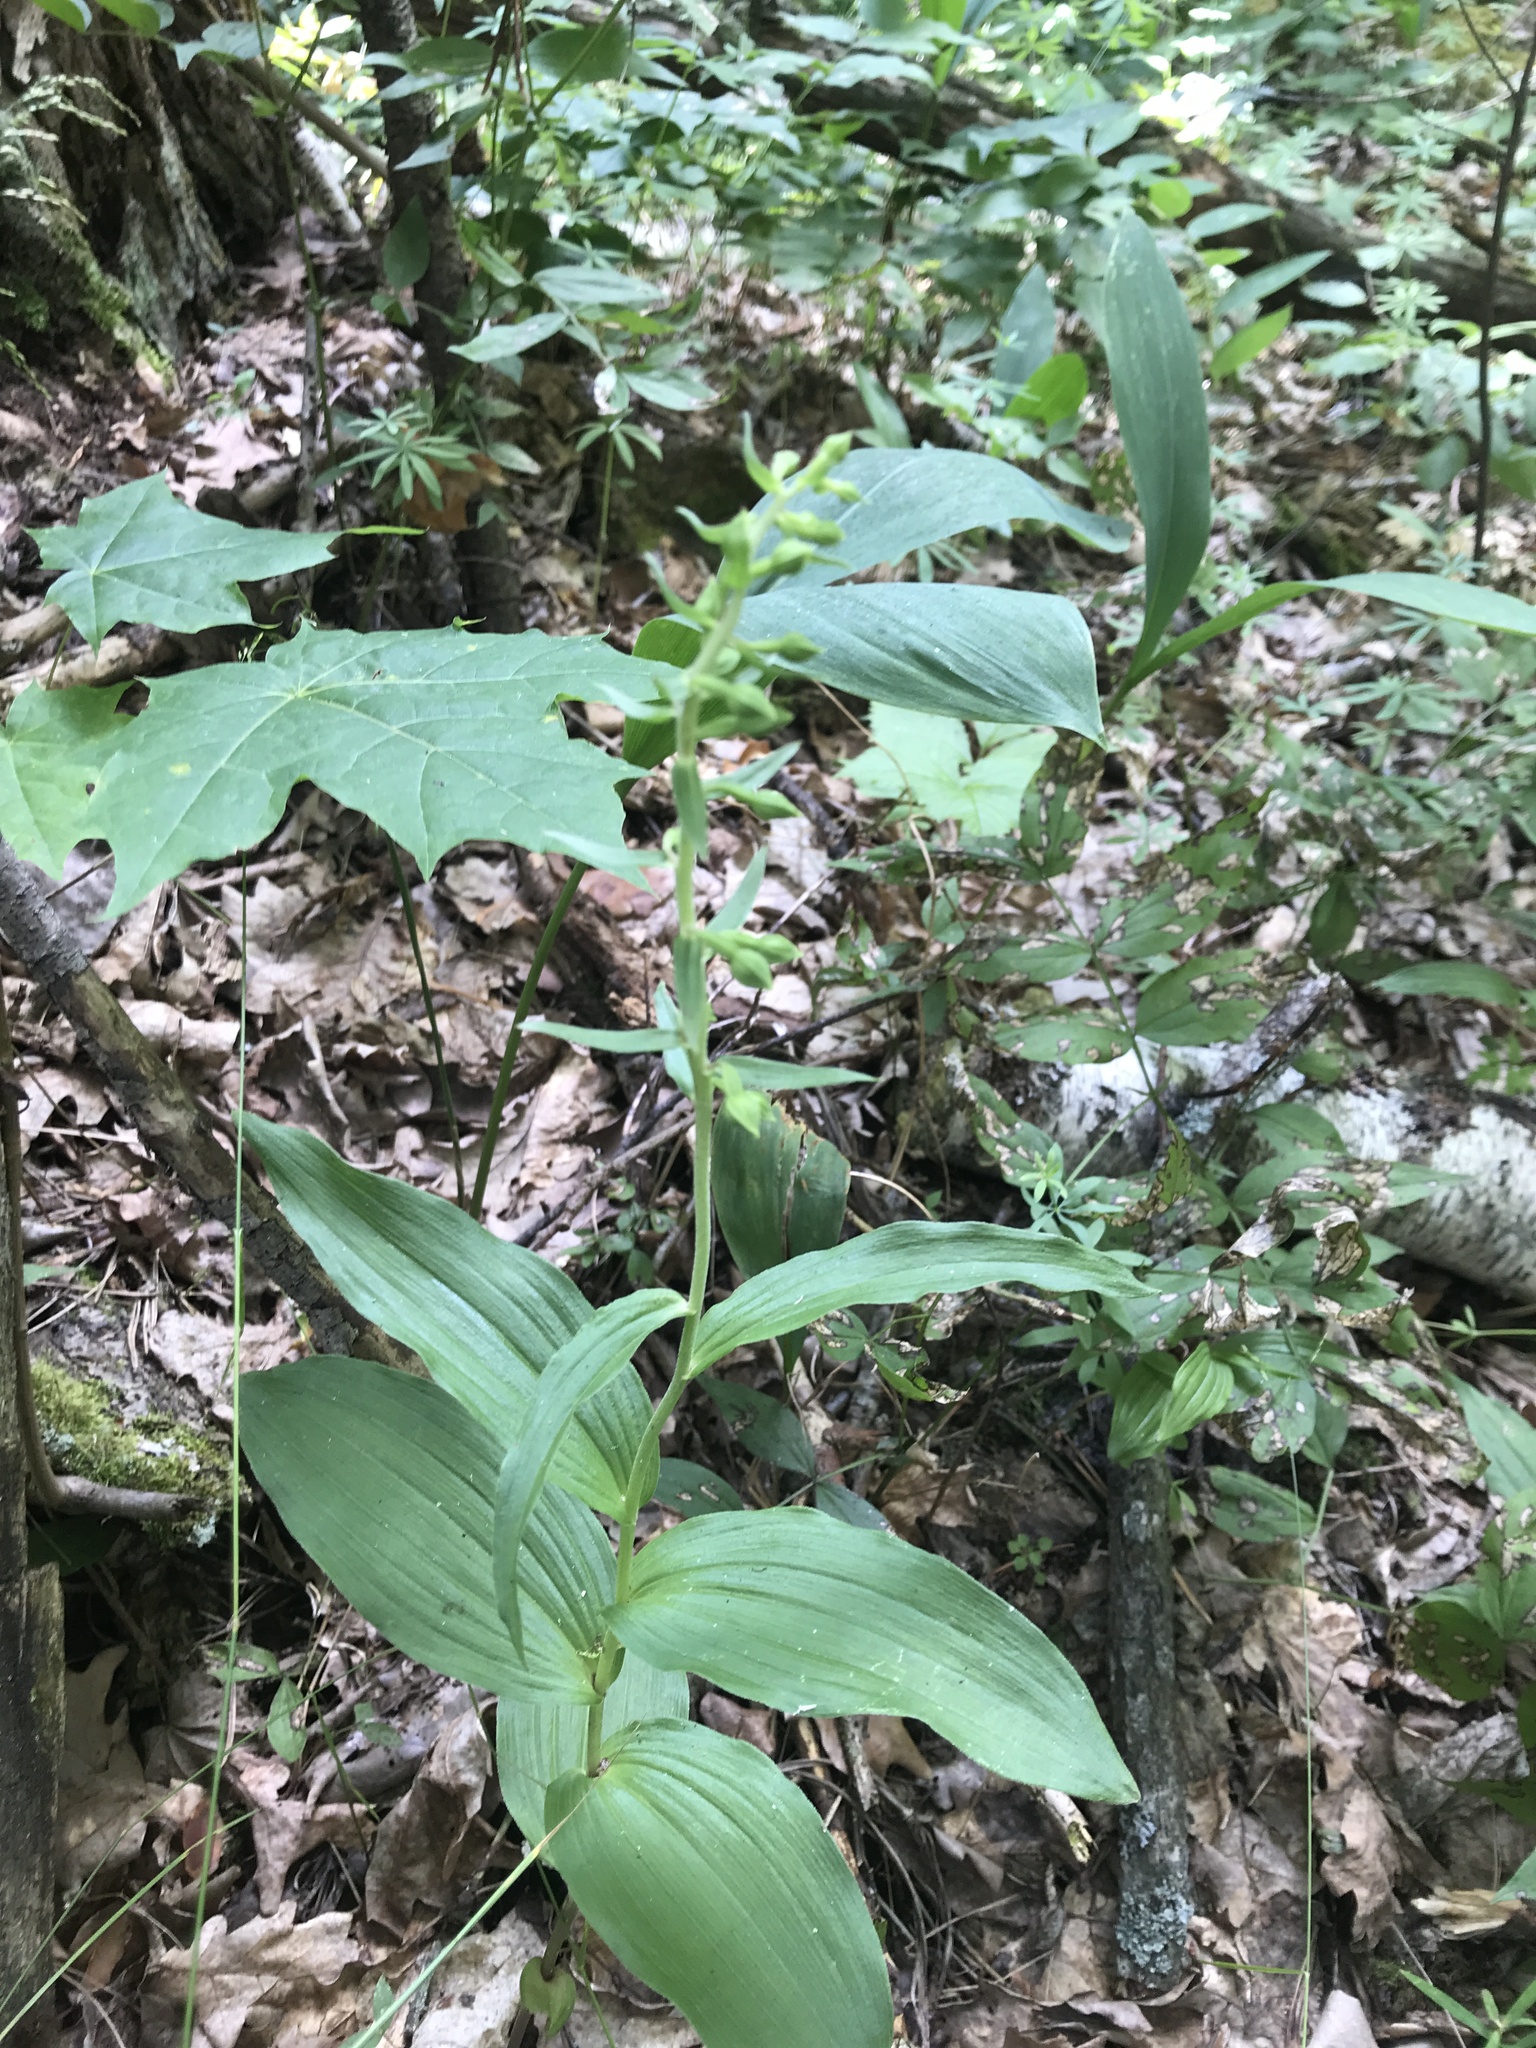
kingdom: Plantae
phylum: Tracheophyta
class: Liliopsida
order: Asparagales
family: Orchidaceae
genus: Epipactis
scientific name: Epipactis helleborine
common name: Broad-leaved helleborine
